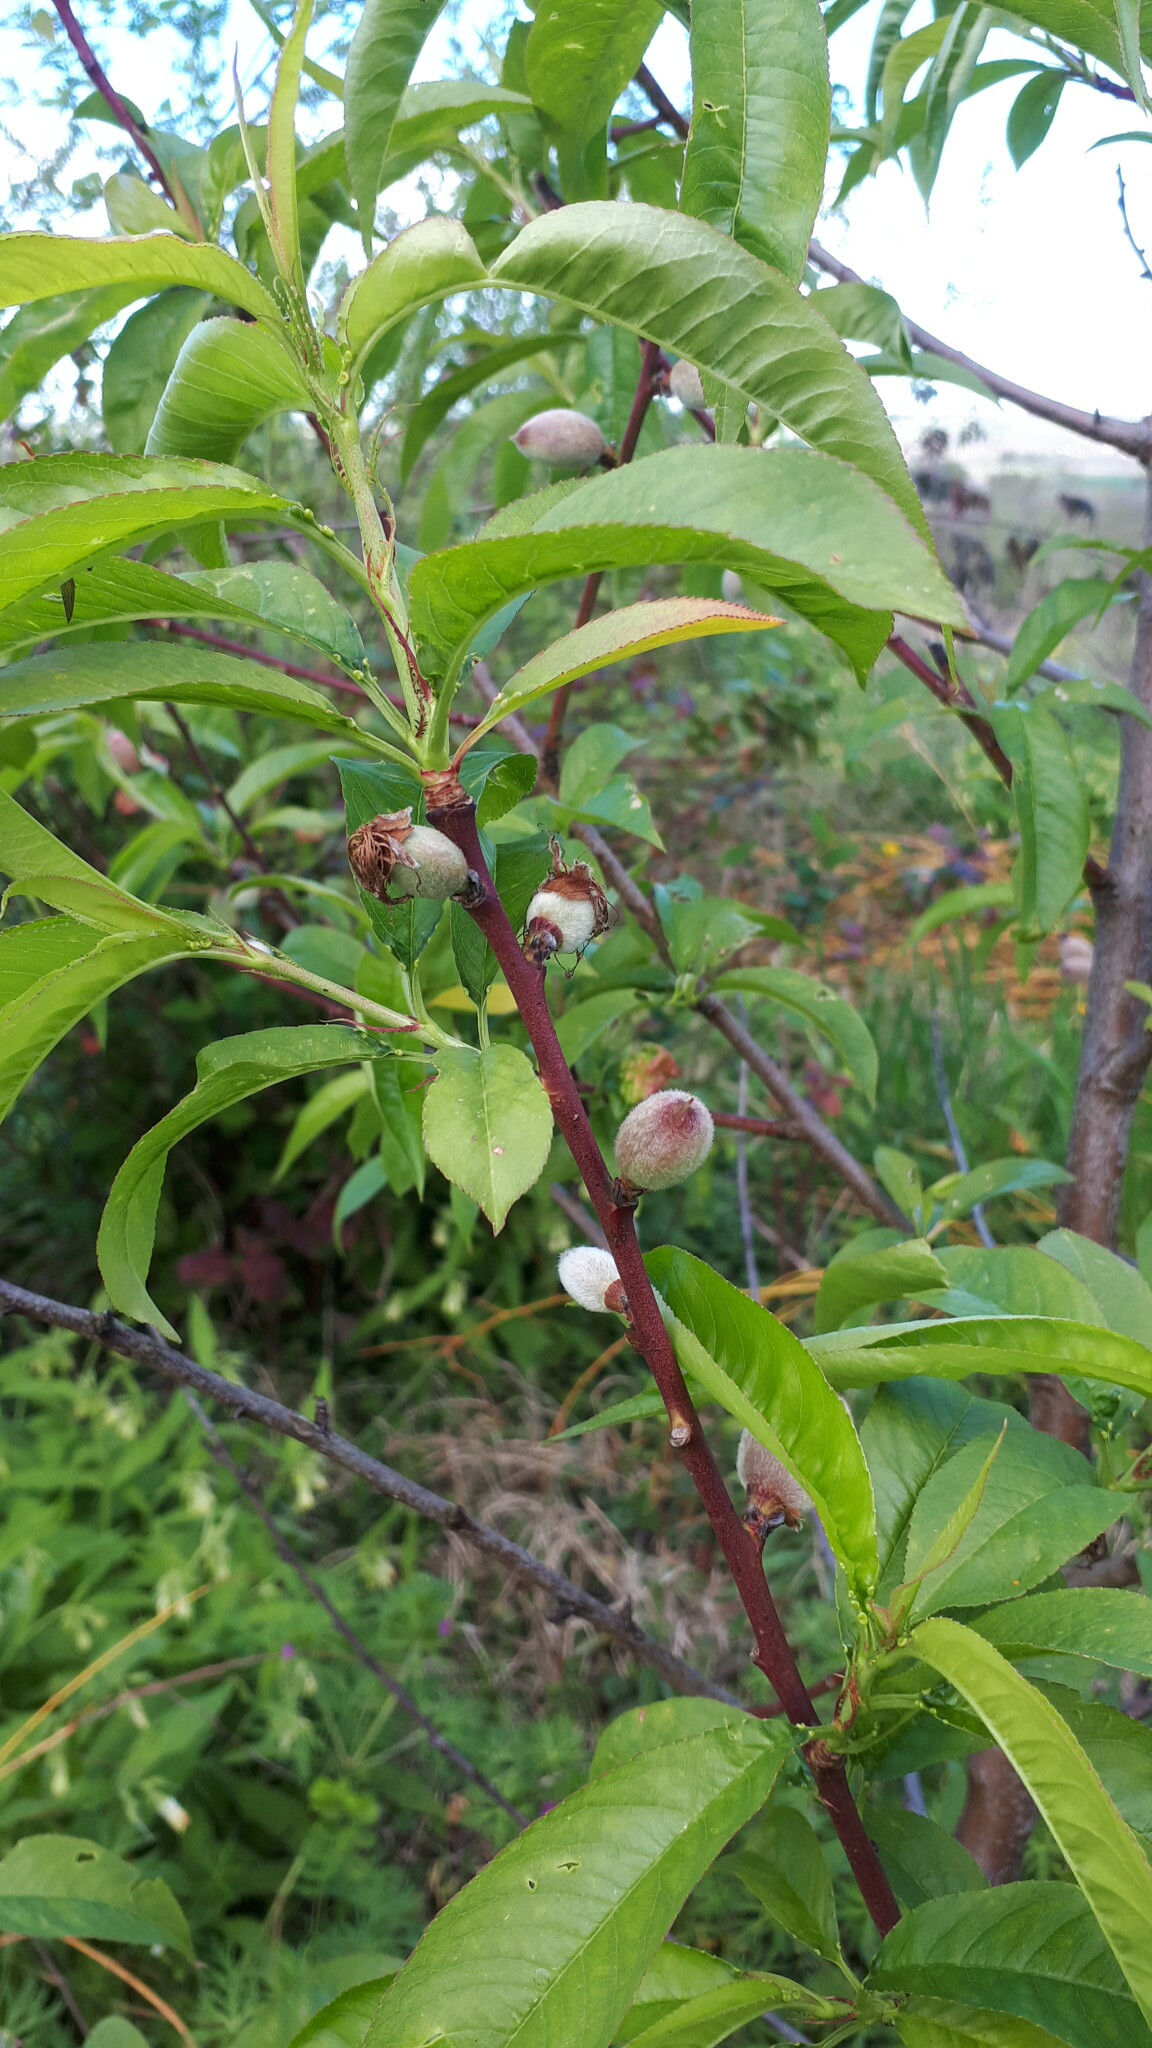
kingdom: Plantae
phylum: Tracheophyta
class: Magnoliopsida
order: Rosales
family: Rosaceae
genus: Prunus
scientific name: Prunus persica
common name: Peach
